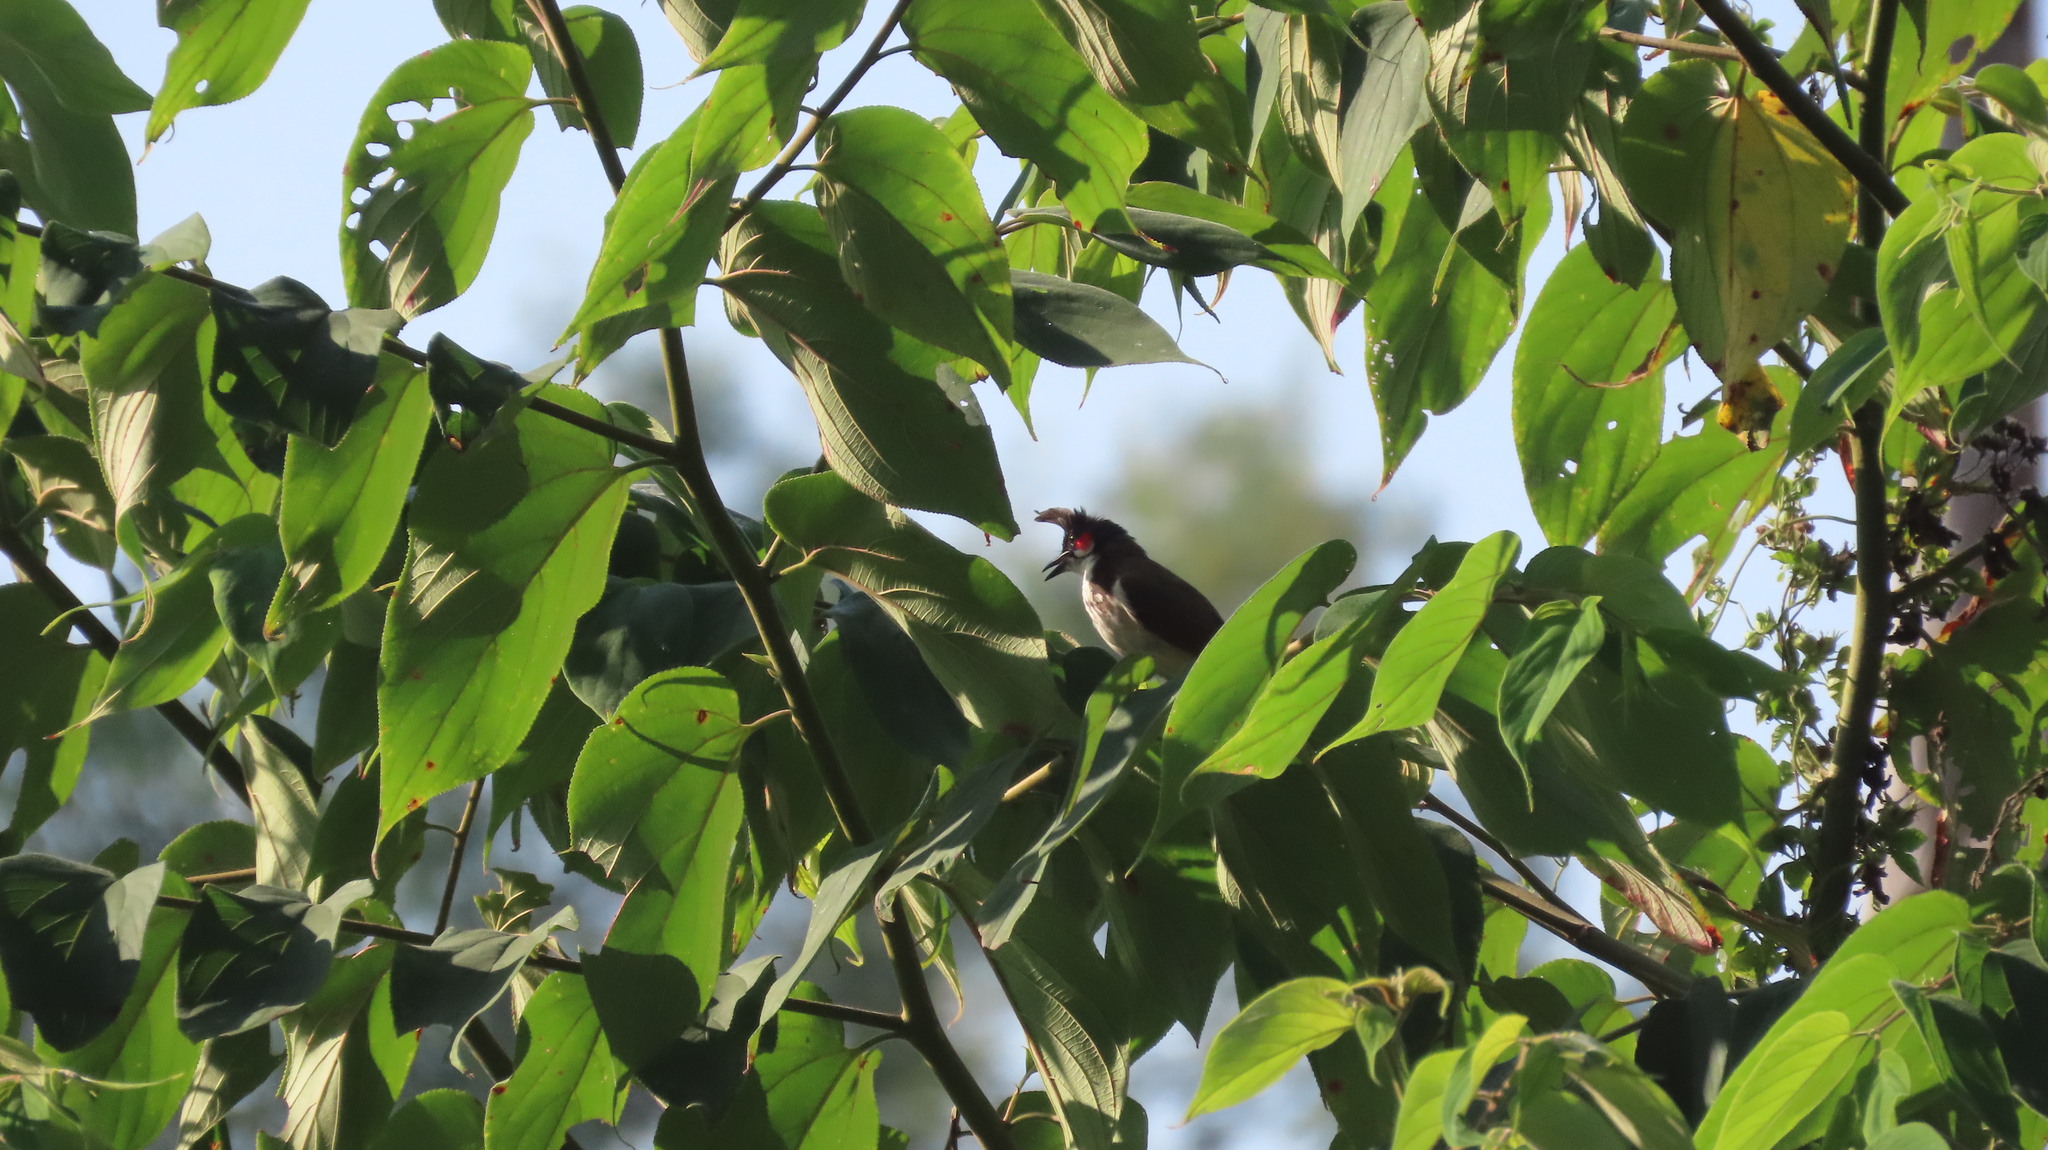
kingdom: Animalia
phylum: Chordata
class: Aves
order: Passeriformes
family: Pycnonotidae
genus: Pycnonotus
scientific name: Pycnonotus jocosus
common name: Red-whiskered bulbul
